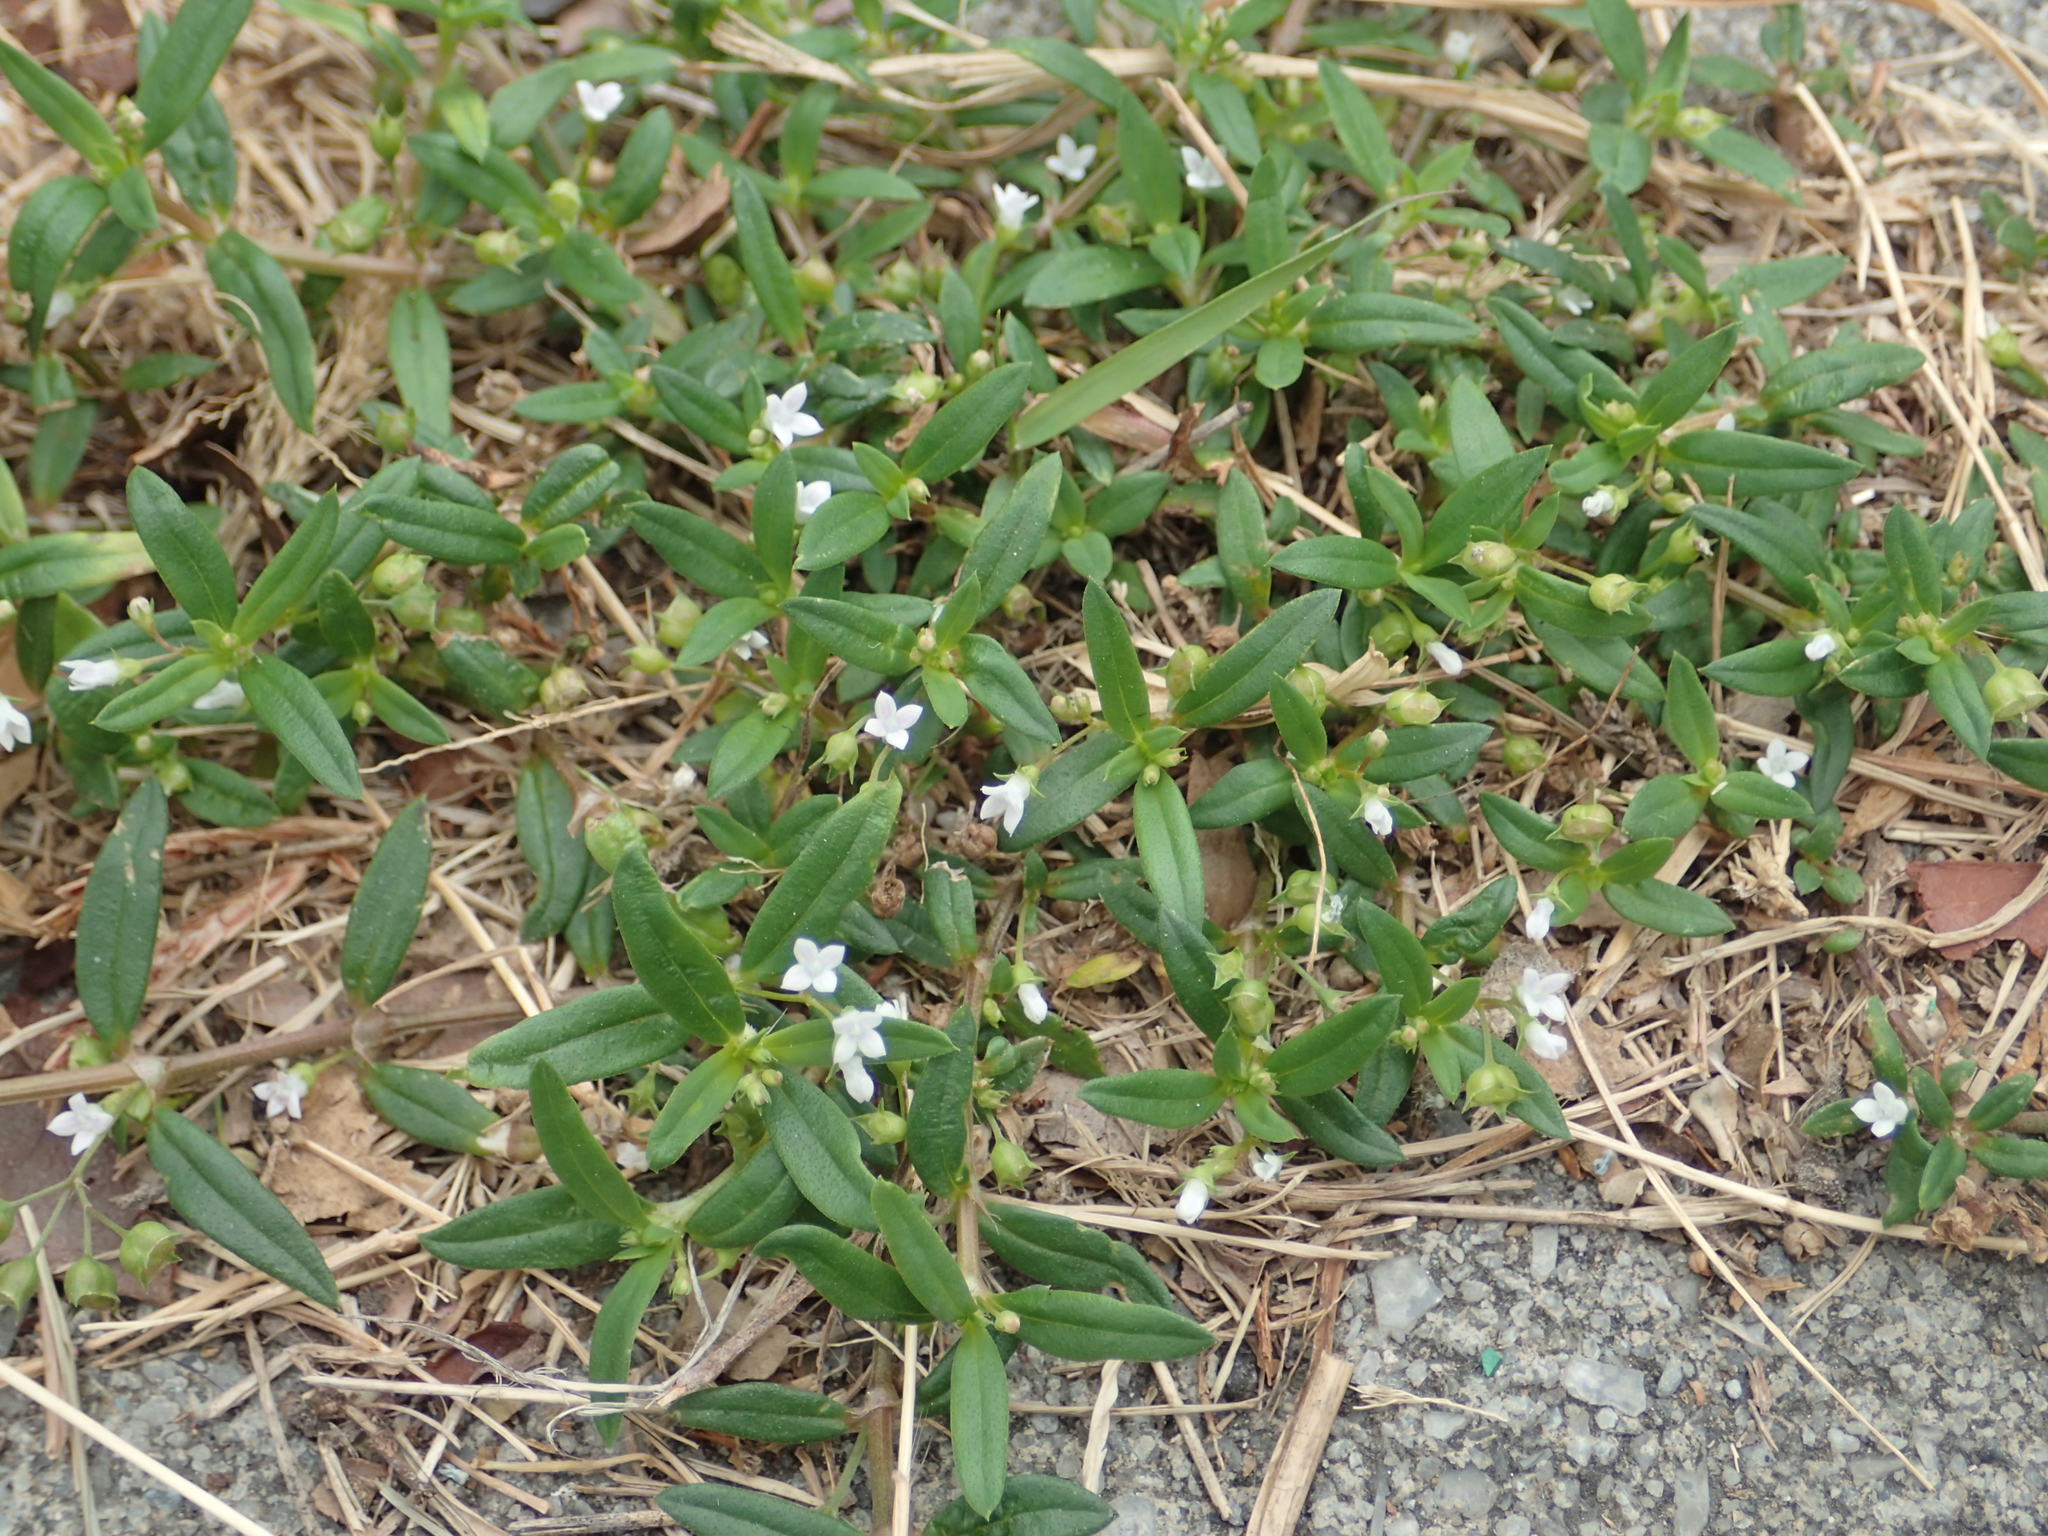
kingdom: Plantae
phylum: Tracheophyta
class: Magnoliopsida
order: Gentianales
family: Rubiaceae
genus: Oldenlandia
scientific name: Oldenlandia corymbosa
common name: Flat-top mille graines
